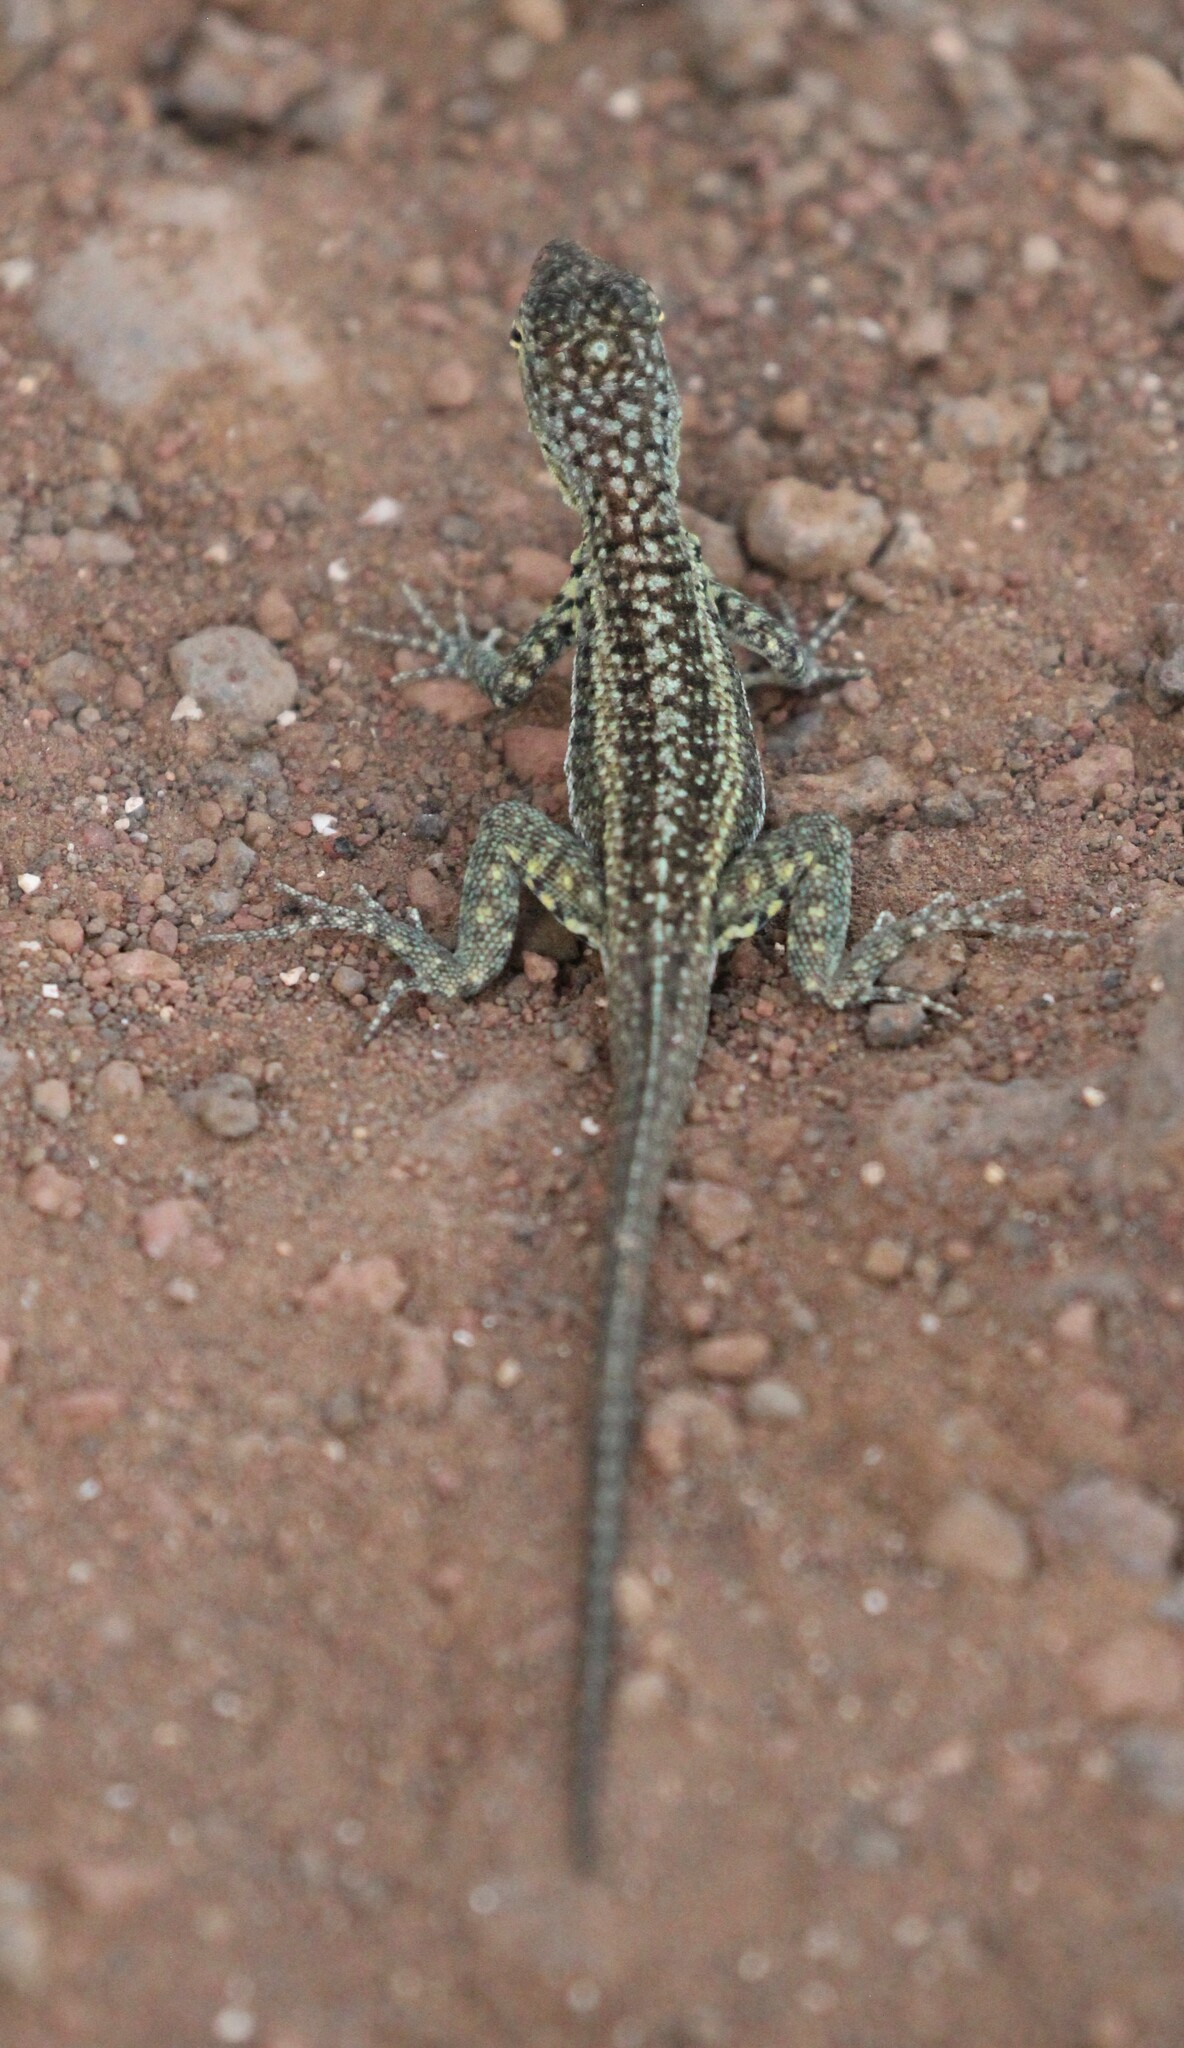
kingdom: Animalia
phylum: Chordata
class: Squamata
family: Tropiduridae
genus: Microlophus
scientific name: Microlophus indefatigabilis
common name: Galapagos lava lizard
